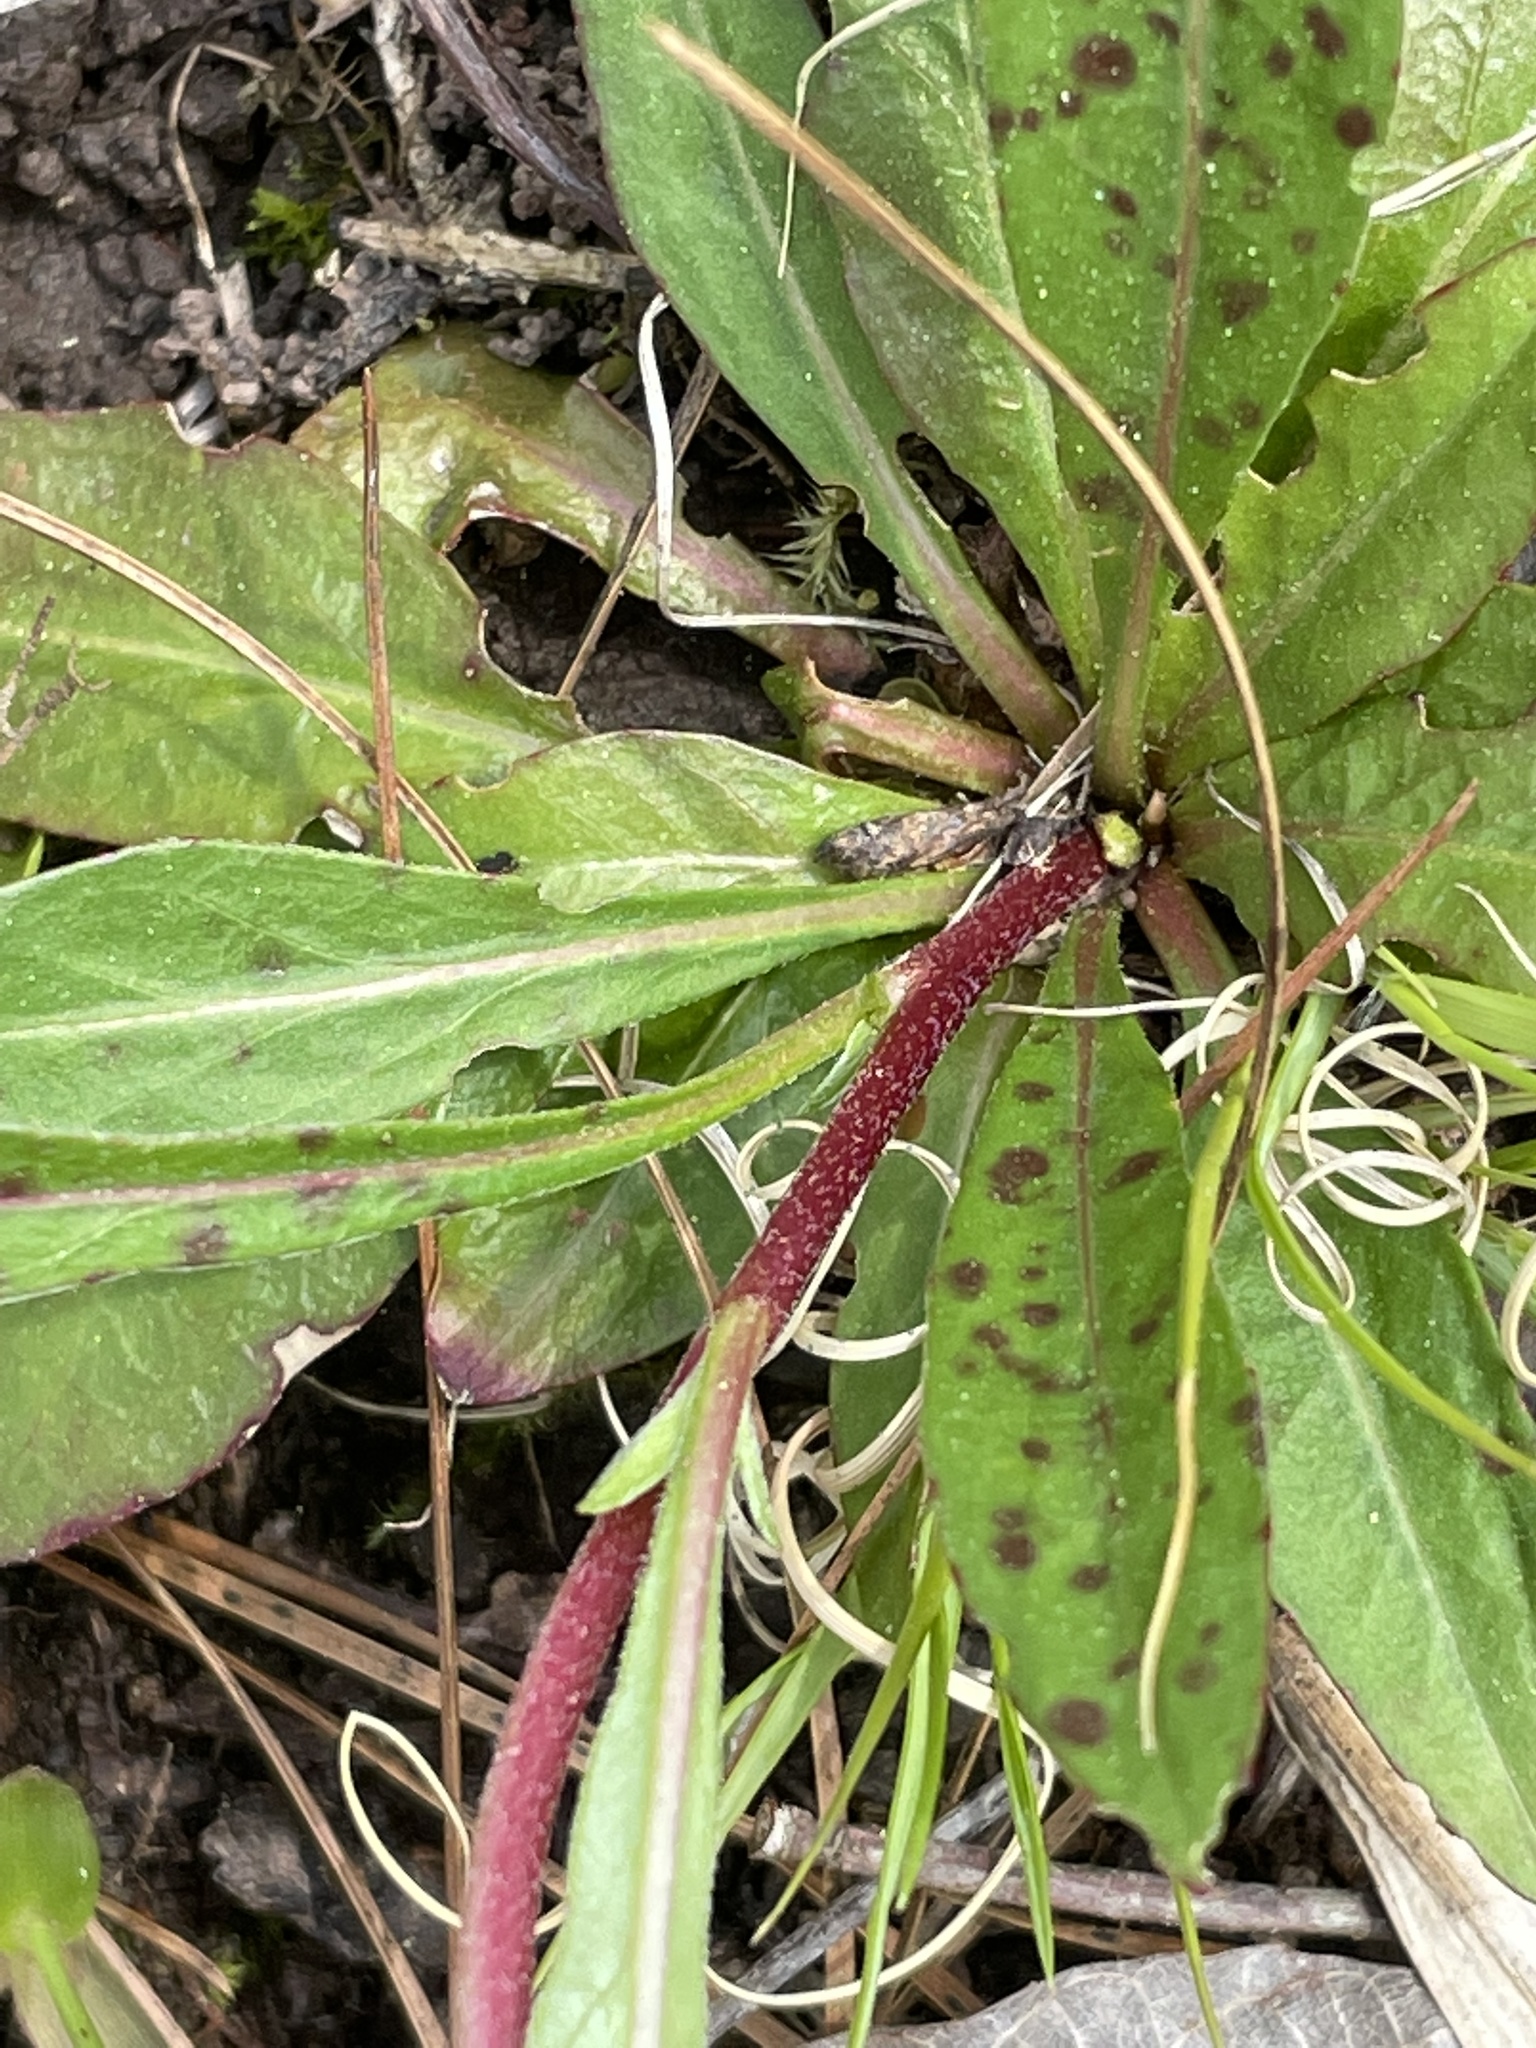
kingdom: Plantae
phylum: Tracheophyta
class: Magnoliopsida
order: Myrtales
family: Onagraceae
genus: Oenothera
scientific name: Oenothera fruticosa
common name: Southern sundrops
